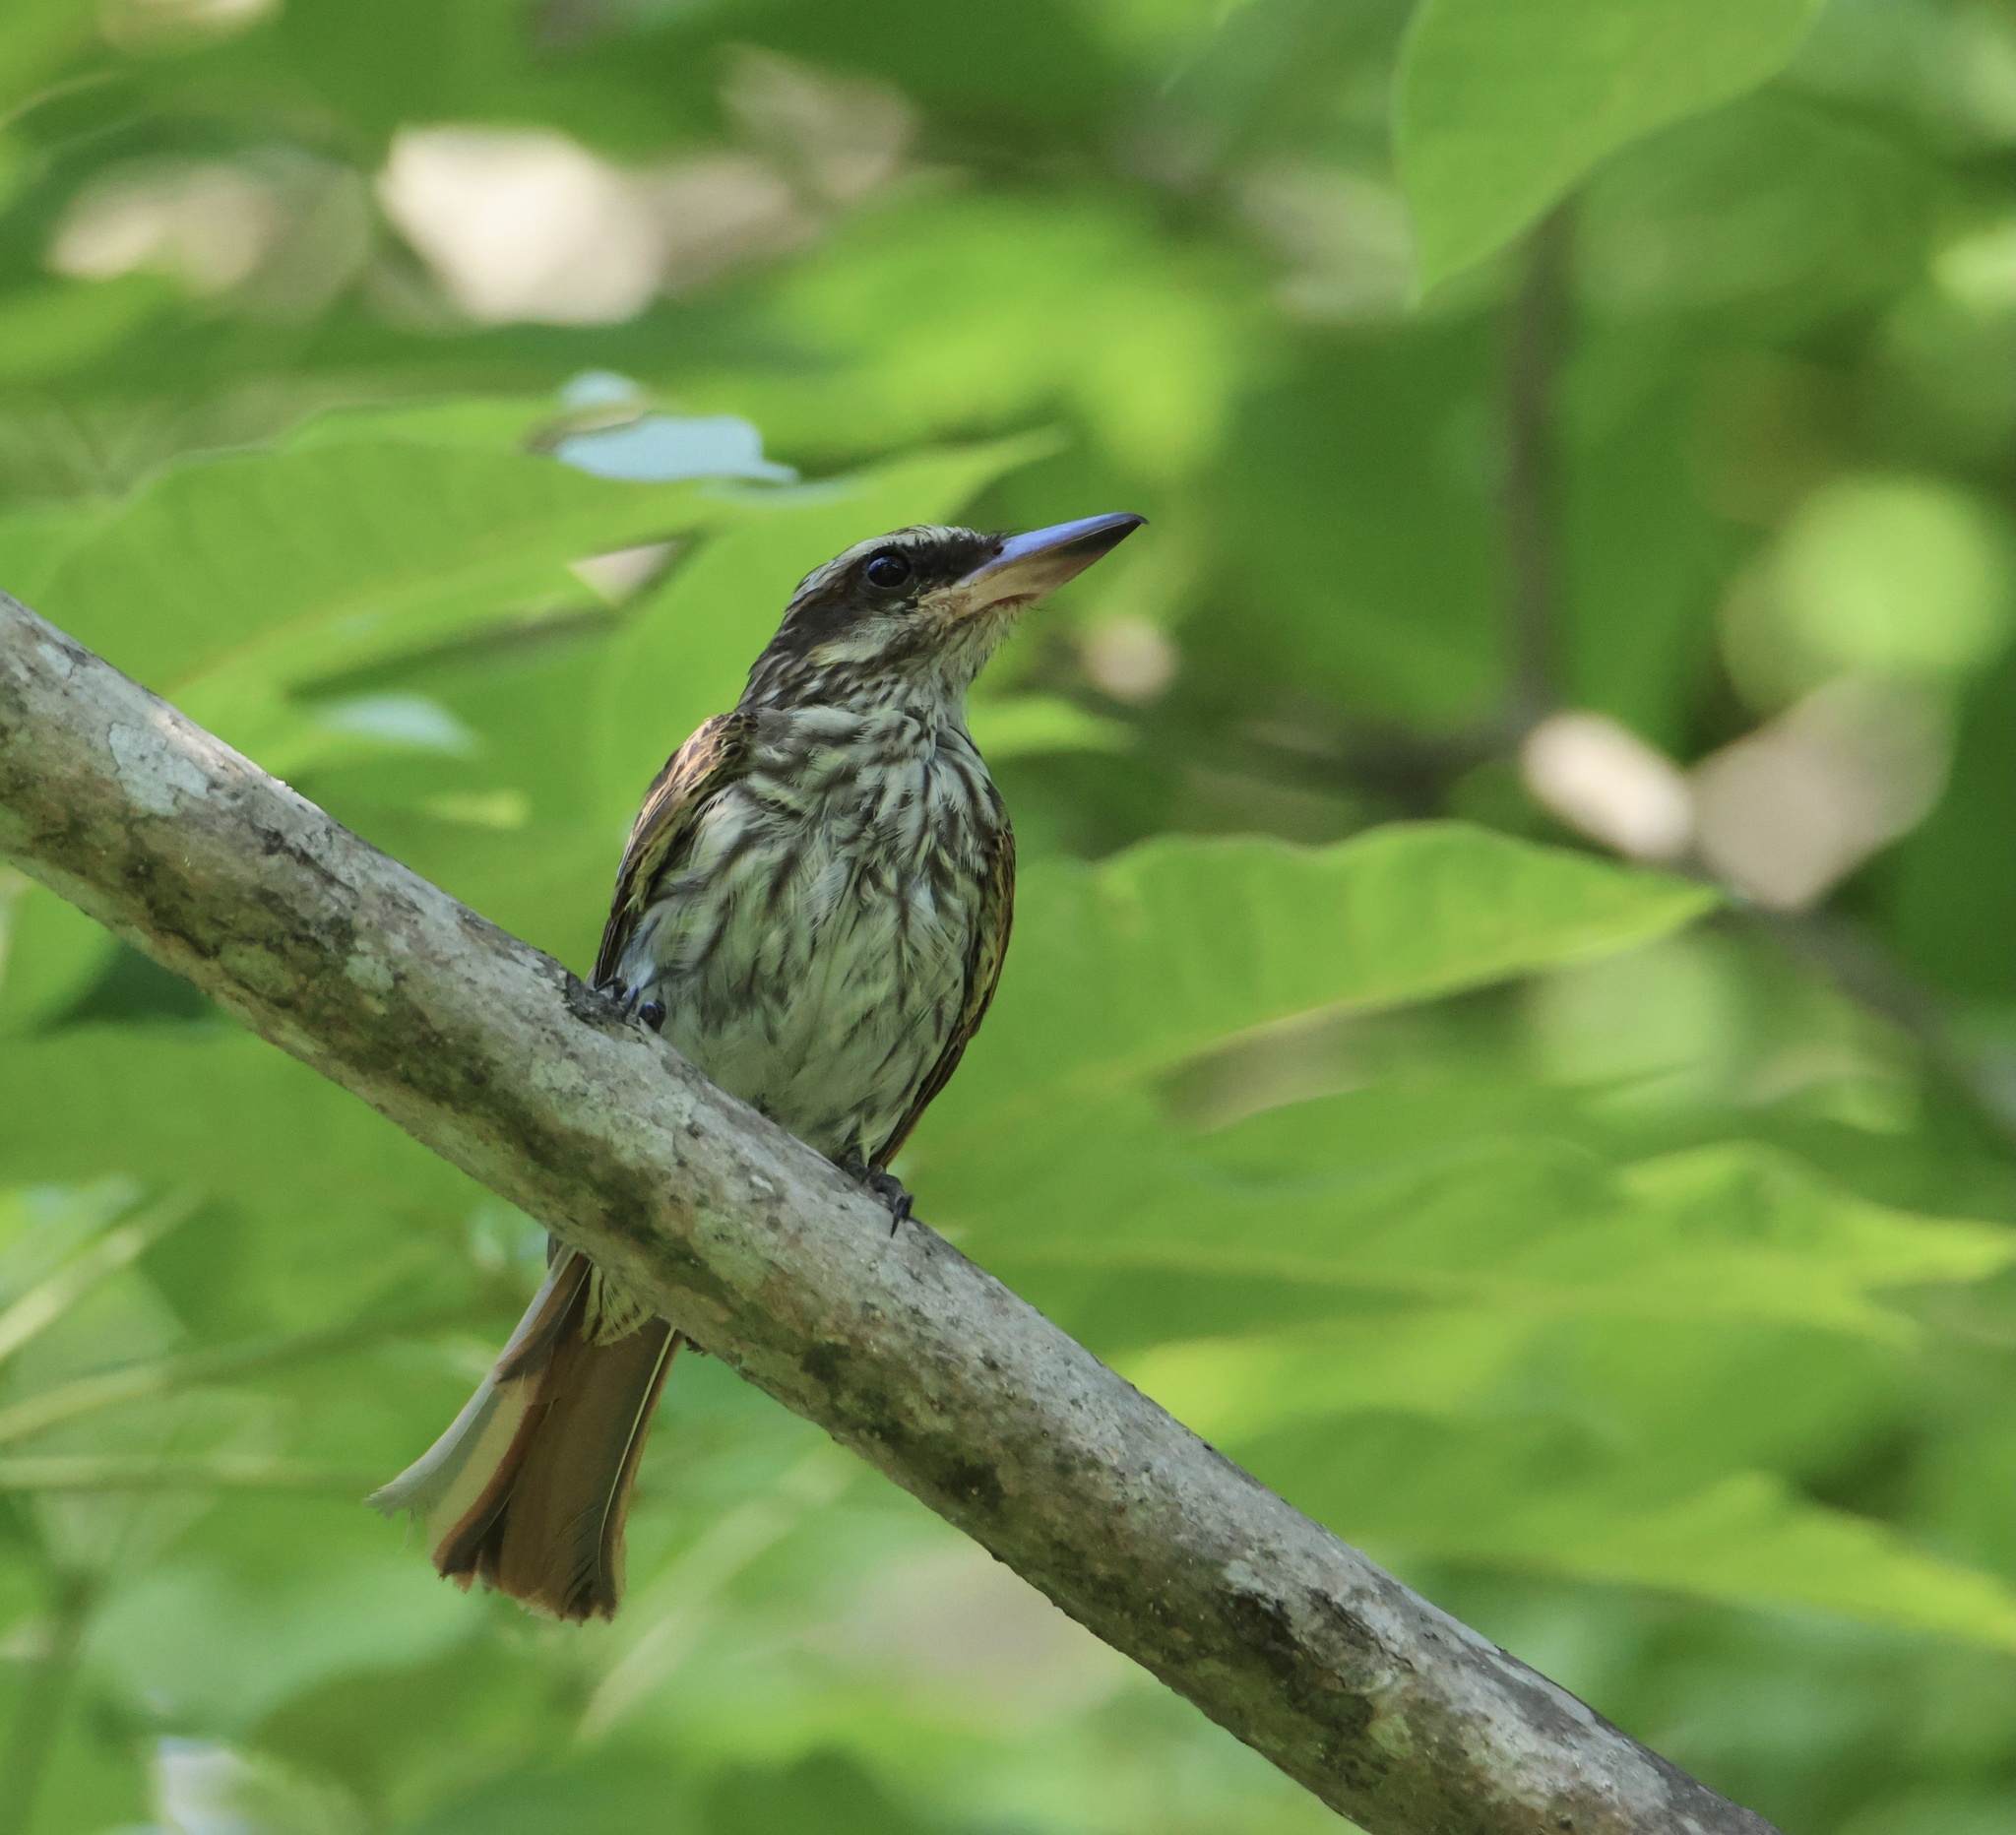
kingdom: Animalia
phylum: Chordata
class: Aves
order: Passeriformes
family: Tyrannidae
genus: Myiodynastes
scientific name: Myiodynastes maculatus
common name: Streaked flycatcher
